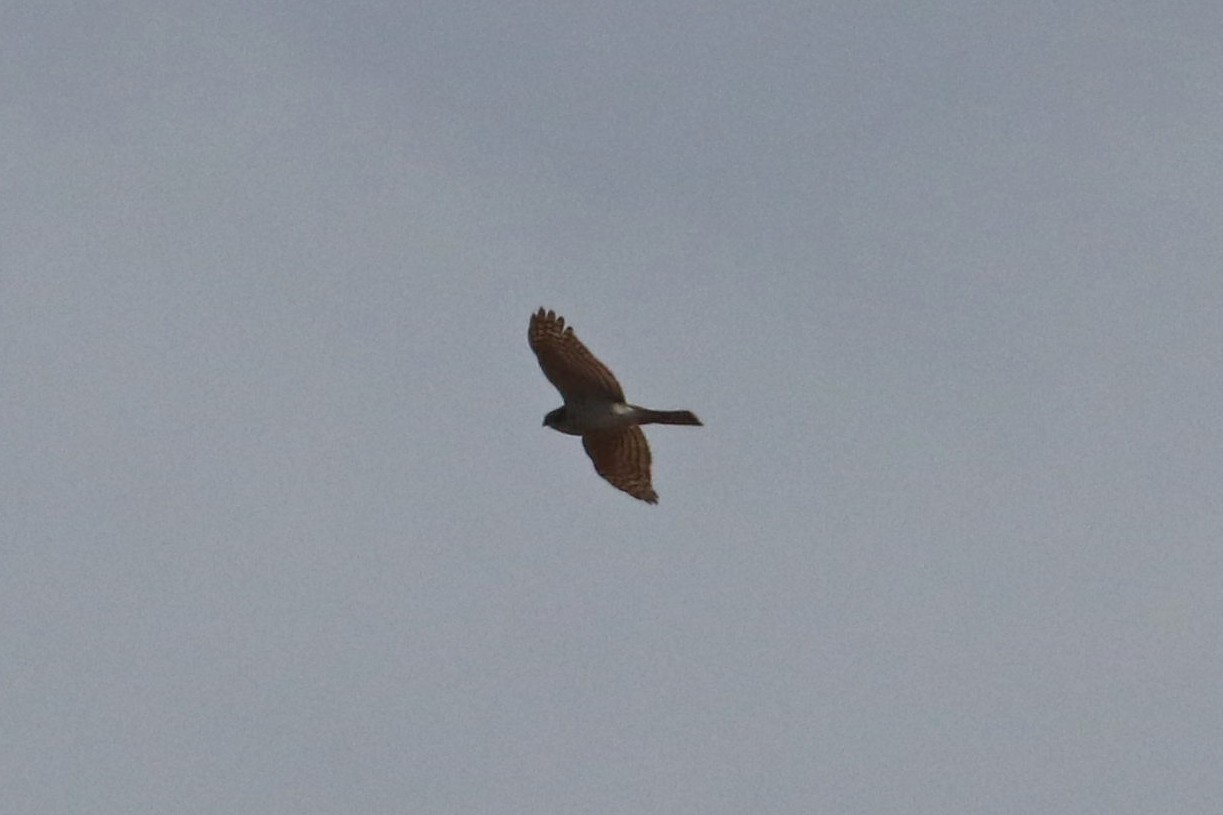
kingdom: Animalia
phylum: Chordata
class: Aves
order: Accipitriformes
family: Accipitridae
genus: Accipiter
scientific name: Accipiter nisus
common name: Eurasian sparrowhawk
